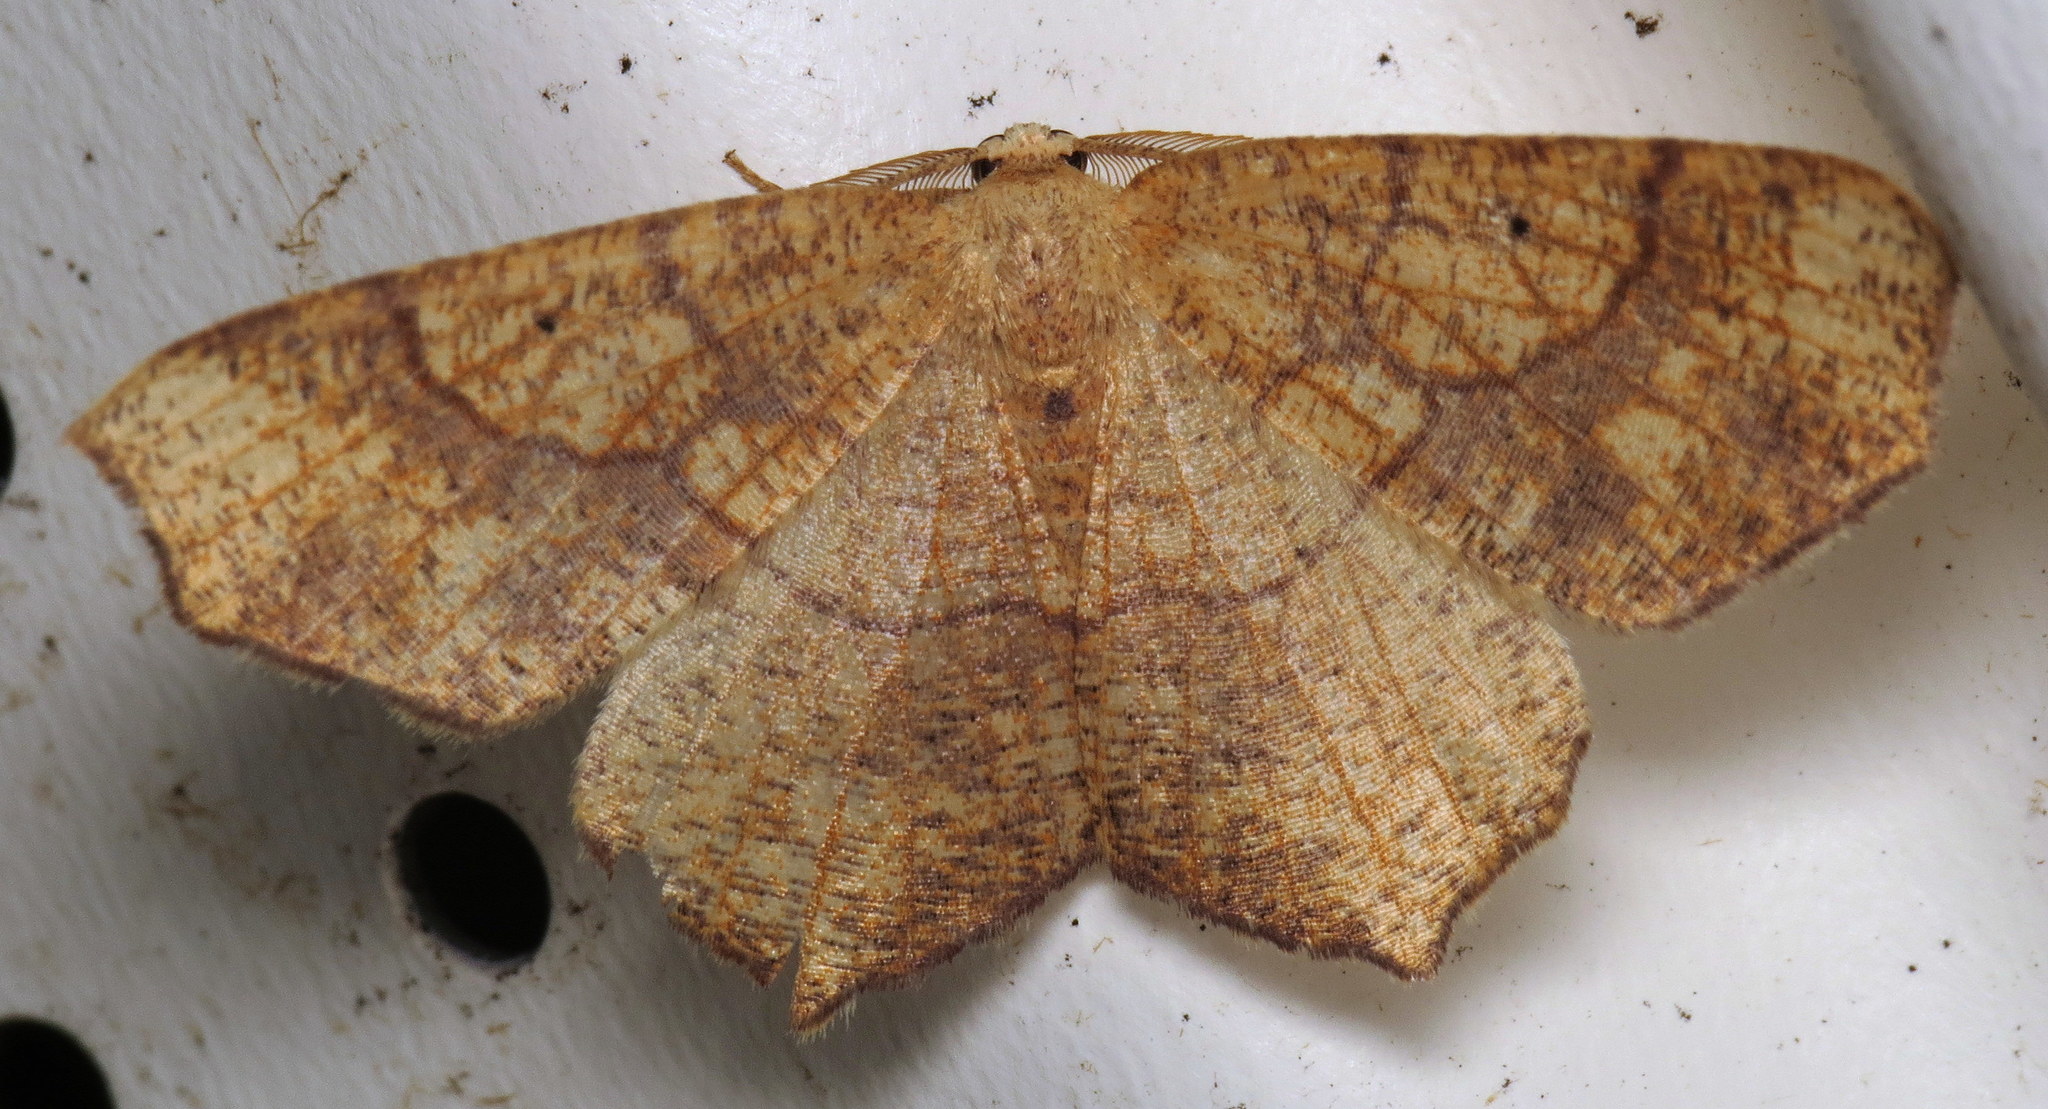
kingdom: Animalia
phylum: Arthropoda
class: Insecta
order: Lepidoptera
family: Geometridae
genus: Besma
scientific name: Besma quercivoraria
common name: Oak besma
